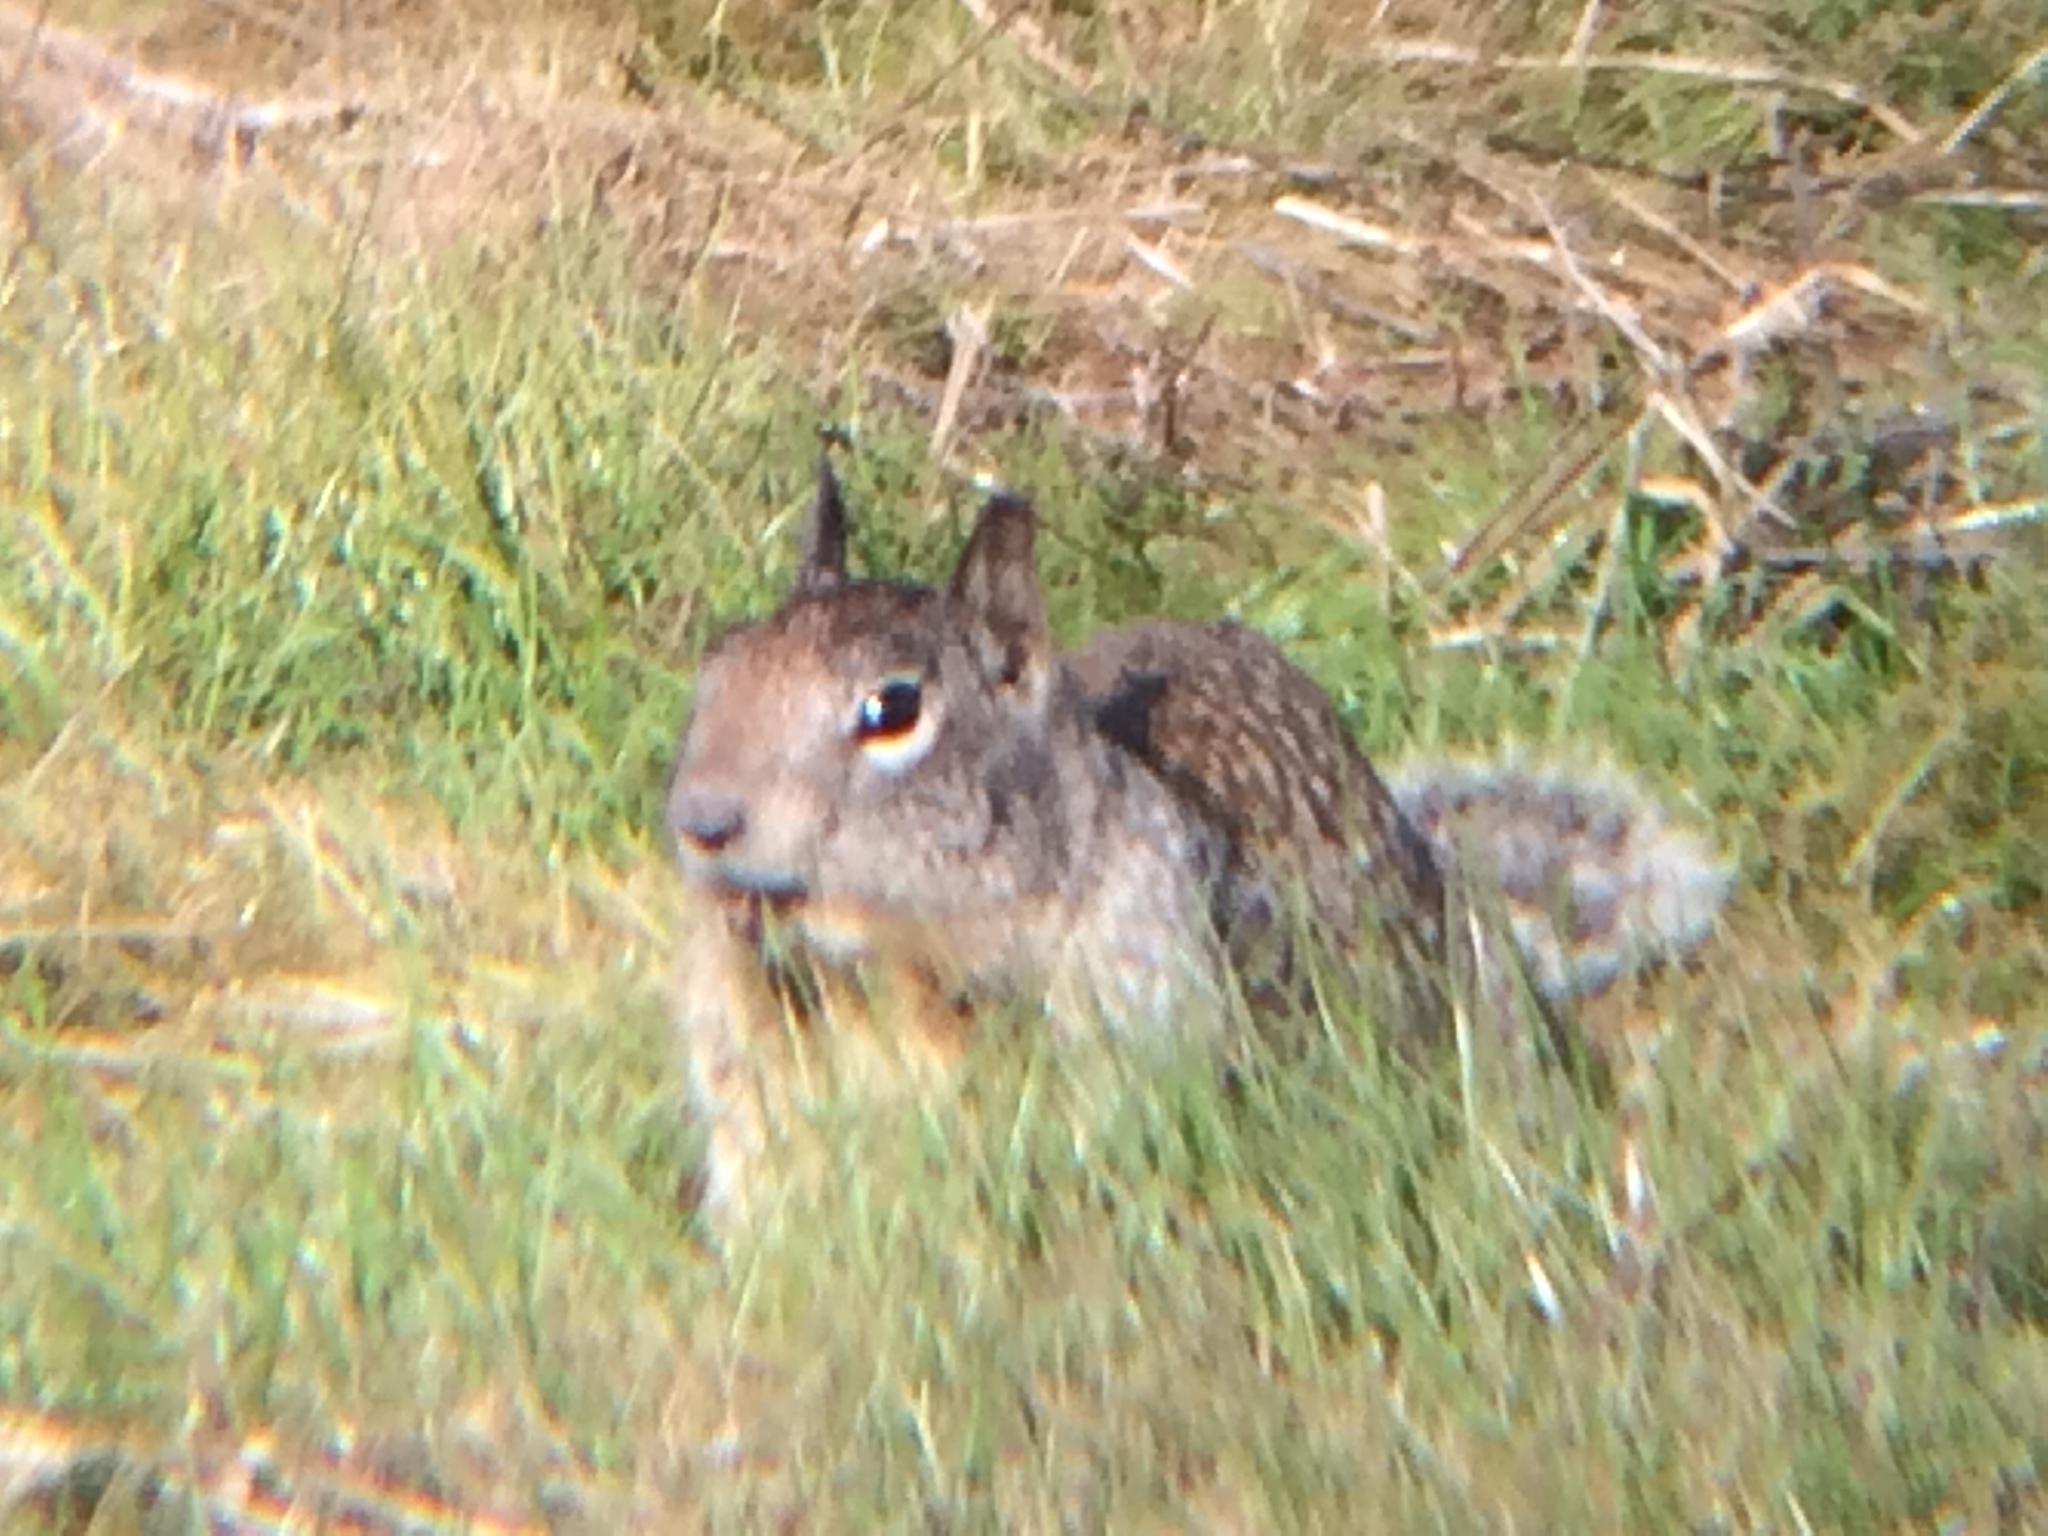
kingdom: Animalia
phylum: Chordata
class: Mammalia
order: Rodentia
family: Sciuridae
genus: Otospermophilus
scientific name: Otospermophilus beecheyi
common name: California ground squirrel
